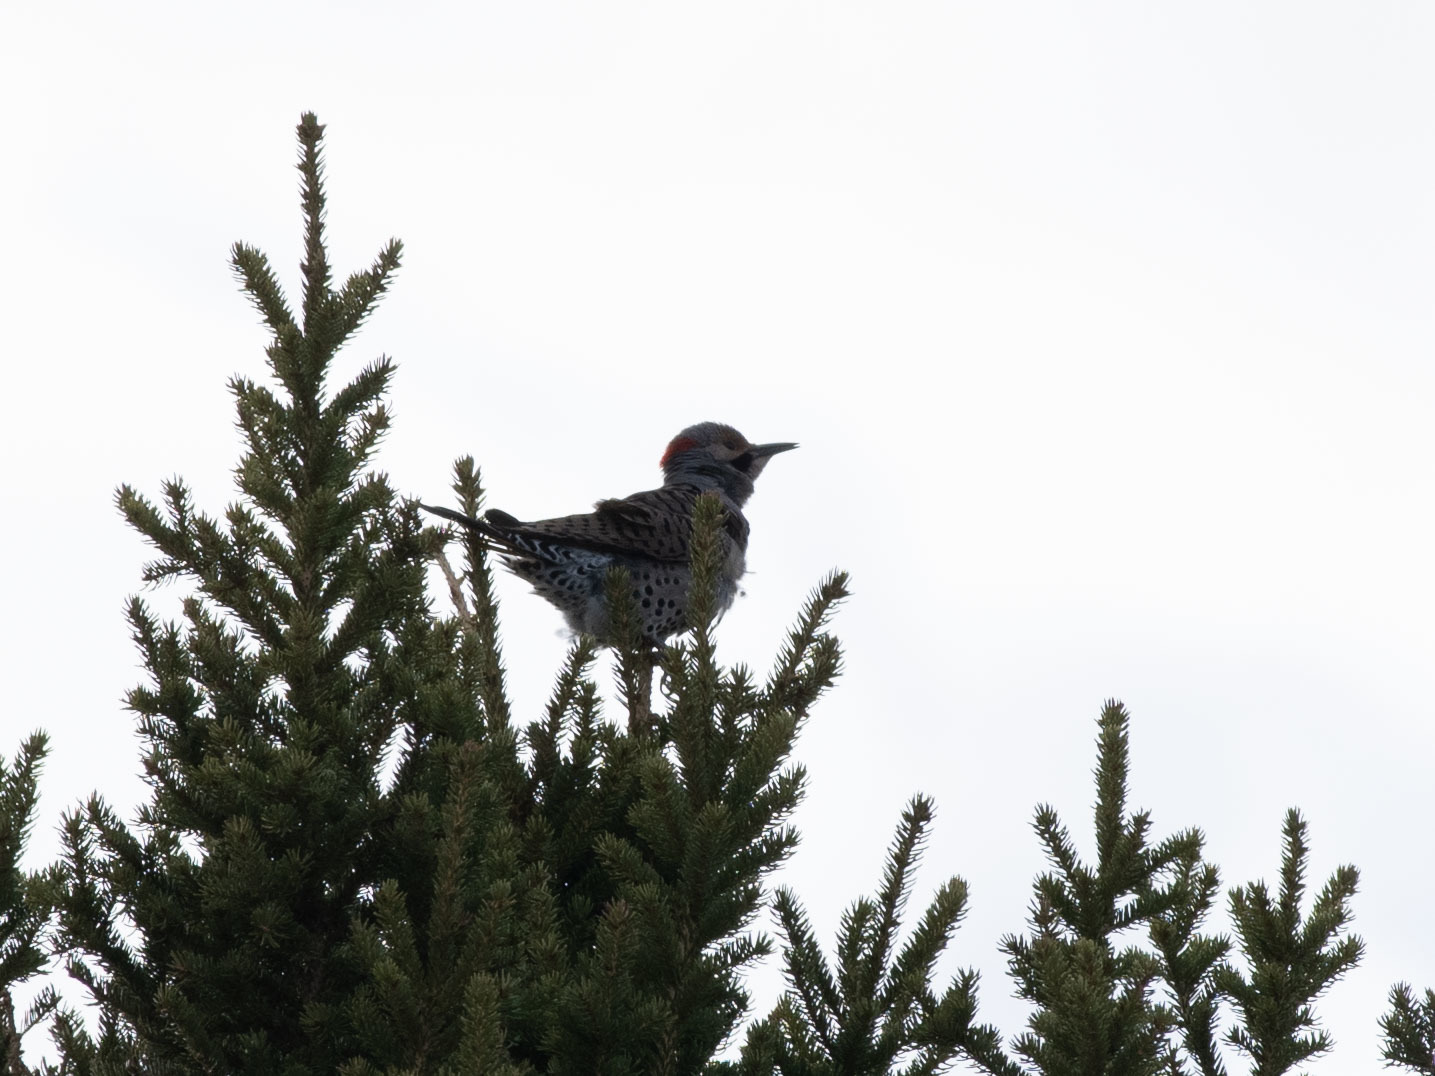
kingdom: Animalia
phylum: Chordata
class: Aves
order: Piciformes
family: Picidae
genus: Colaptes
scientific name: Colaptes auratus
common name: Northern flicker
